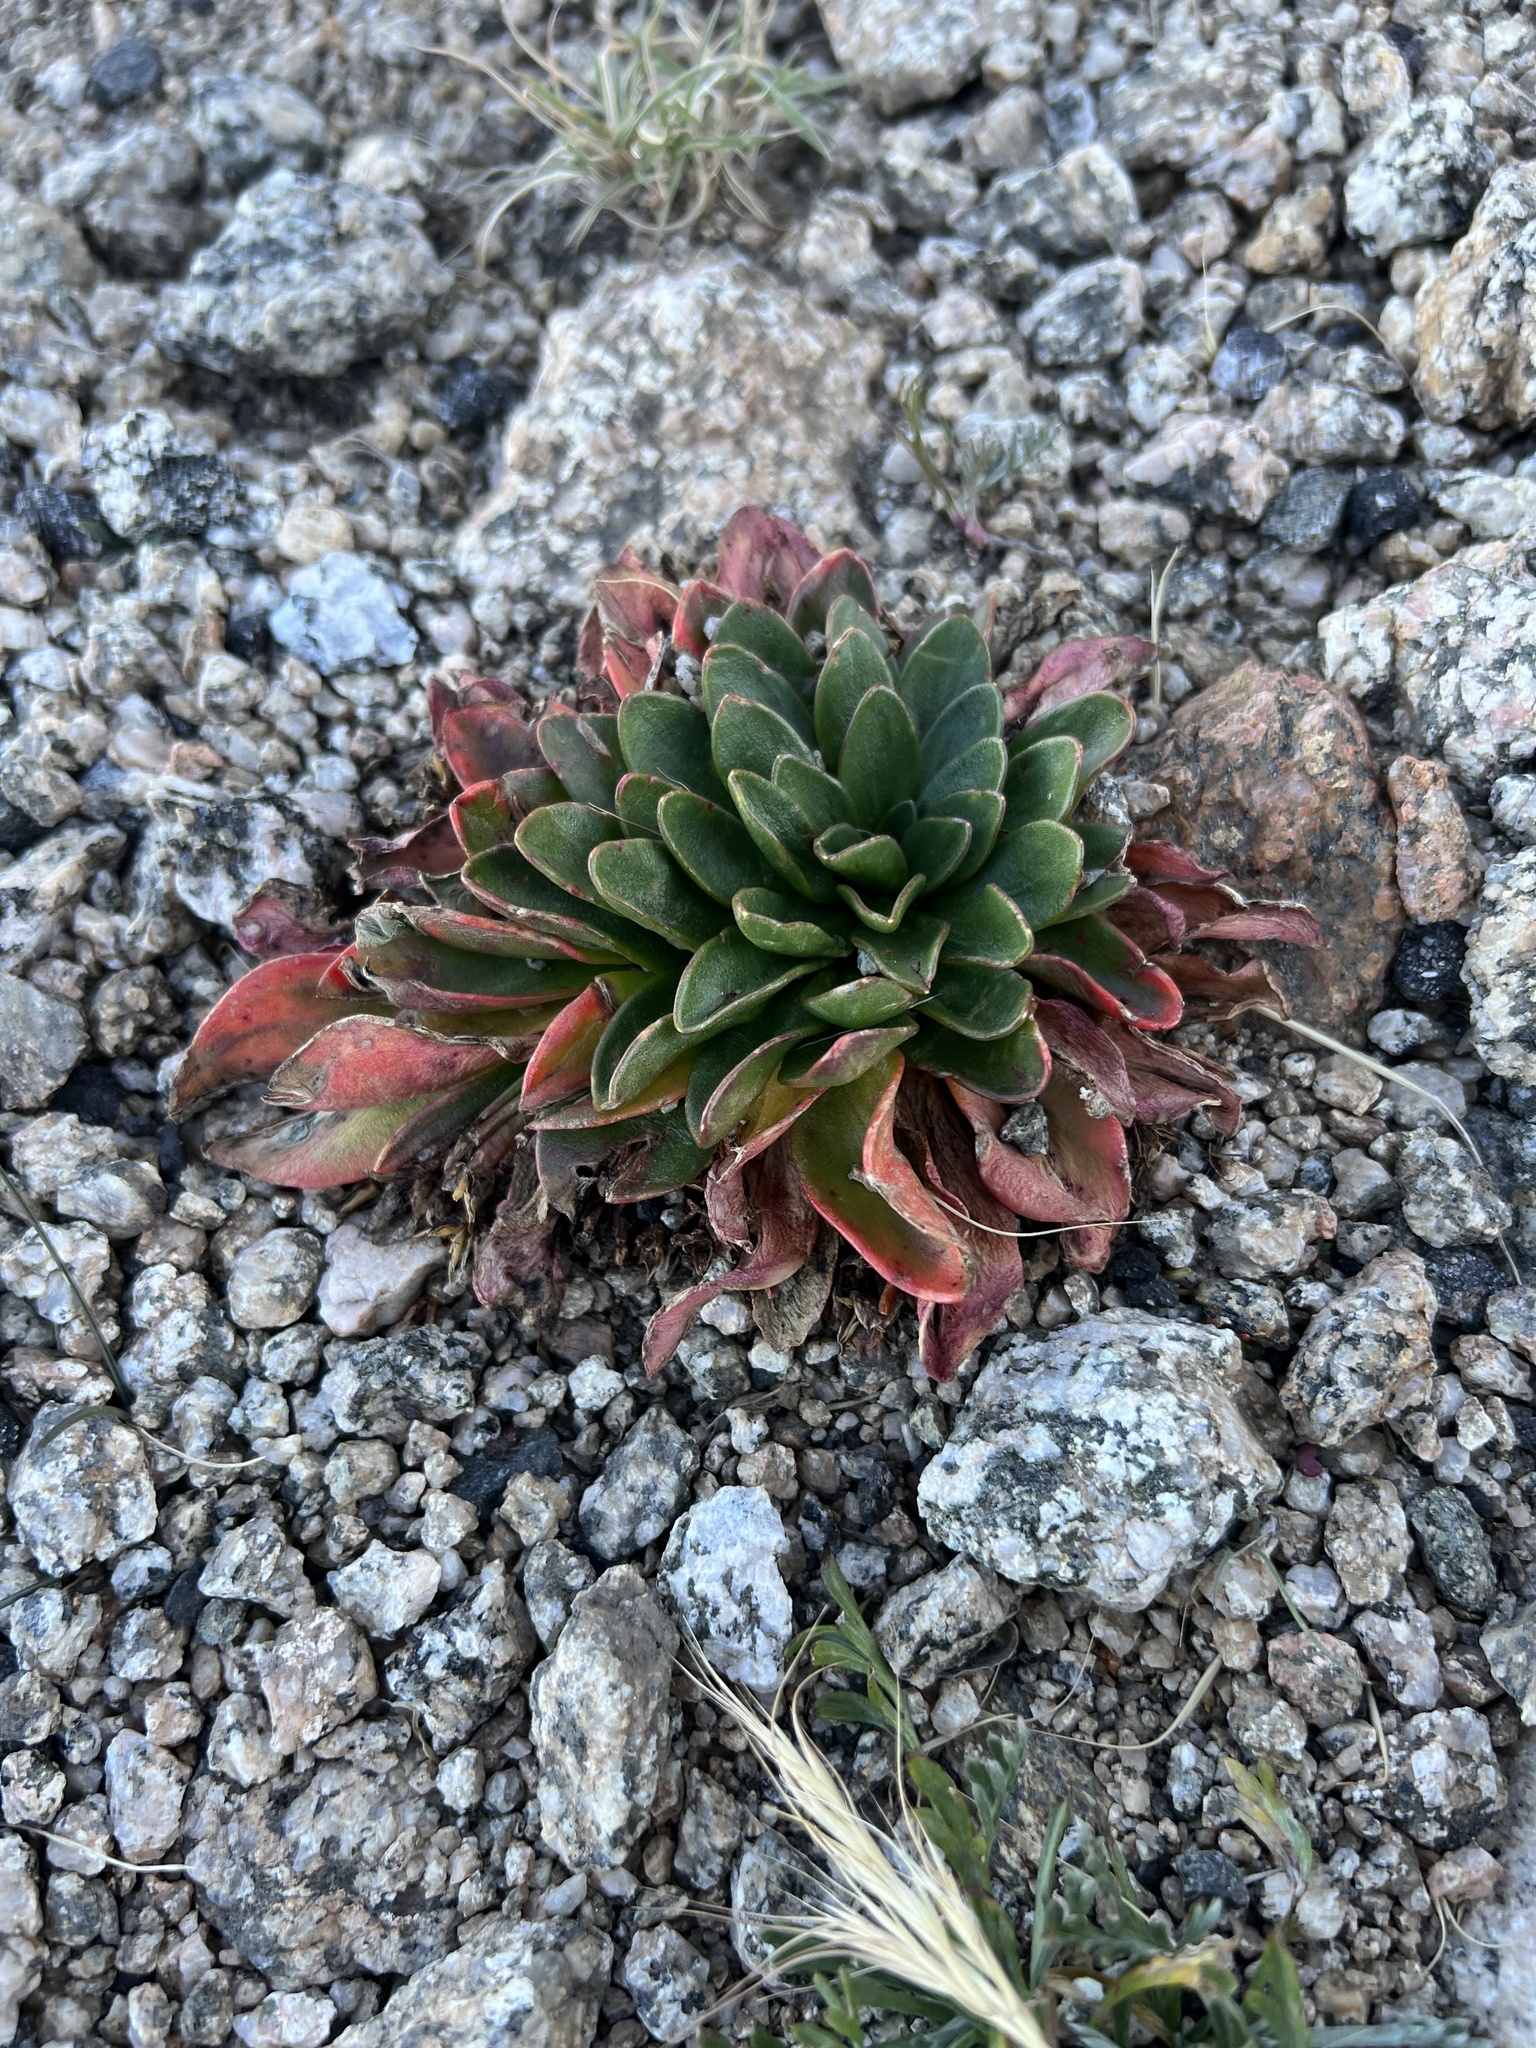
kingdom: Plantae
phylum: Tracheophyta
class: Magnoliopsida
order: Caryophyllales
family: Montiaceae
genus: Claytonia
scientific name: Claytonia megarhiza
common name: Alpine spring beauty
